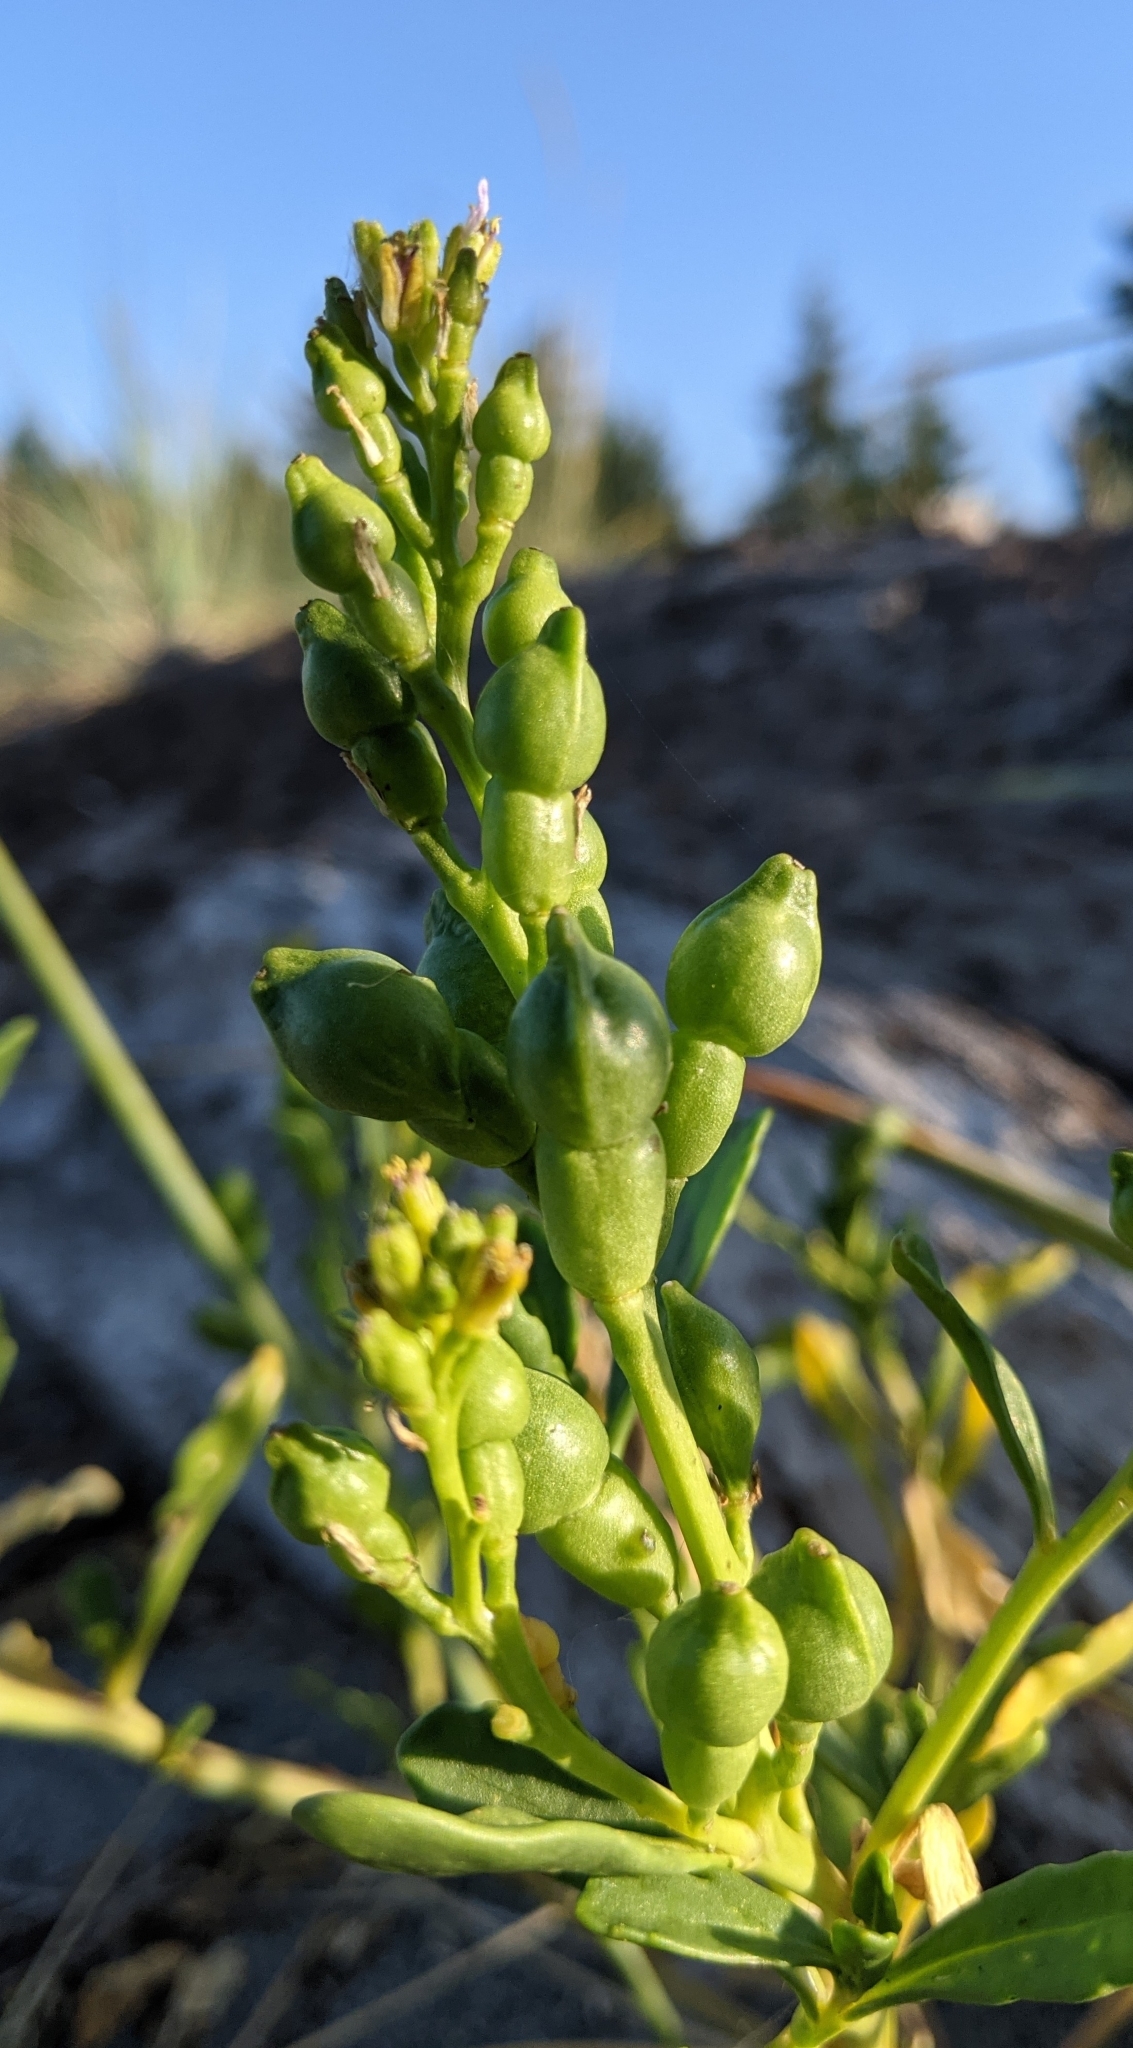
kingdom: Plantae
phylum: Tracheophyta
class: Magnoliopsida
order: Brassicales
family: Brassicaceae
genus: Cakile
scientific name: Cakile edentula
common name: American sea rocket
